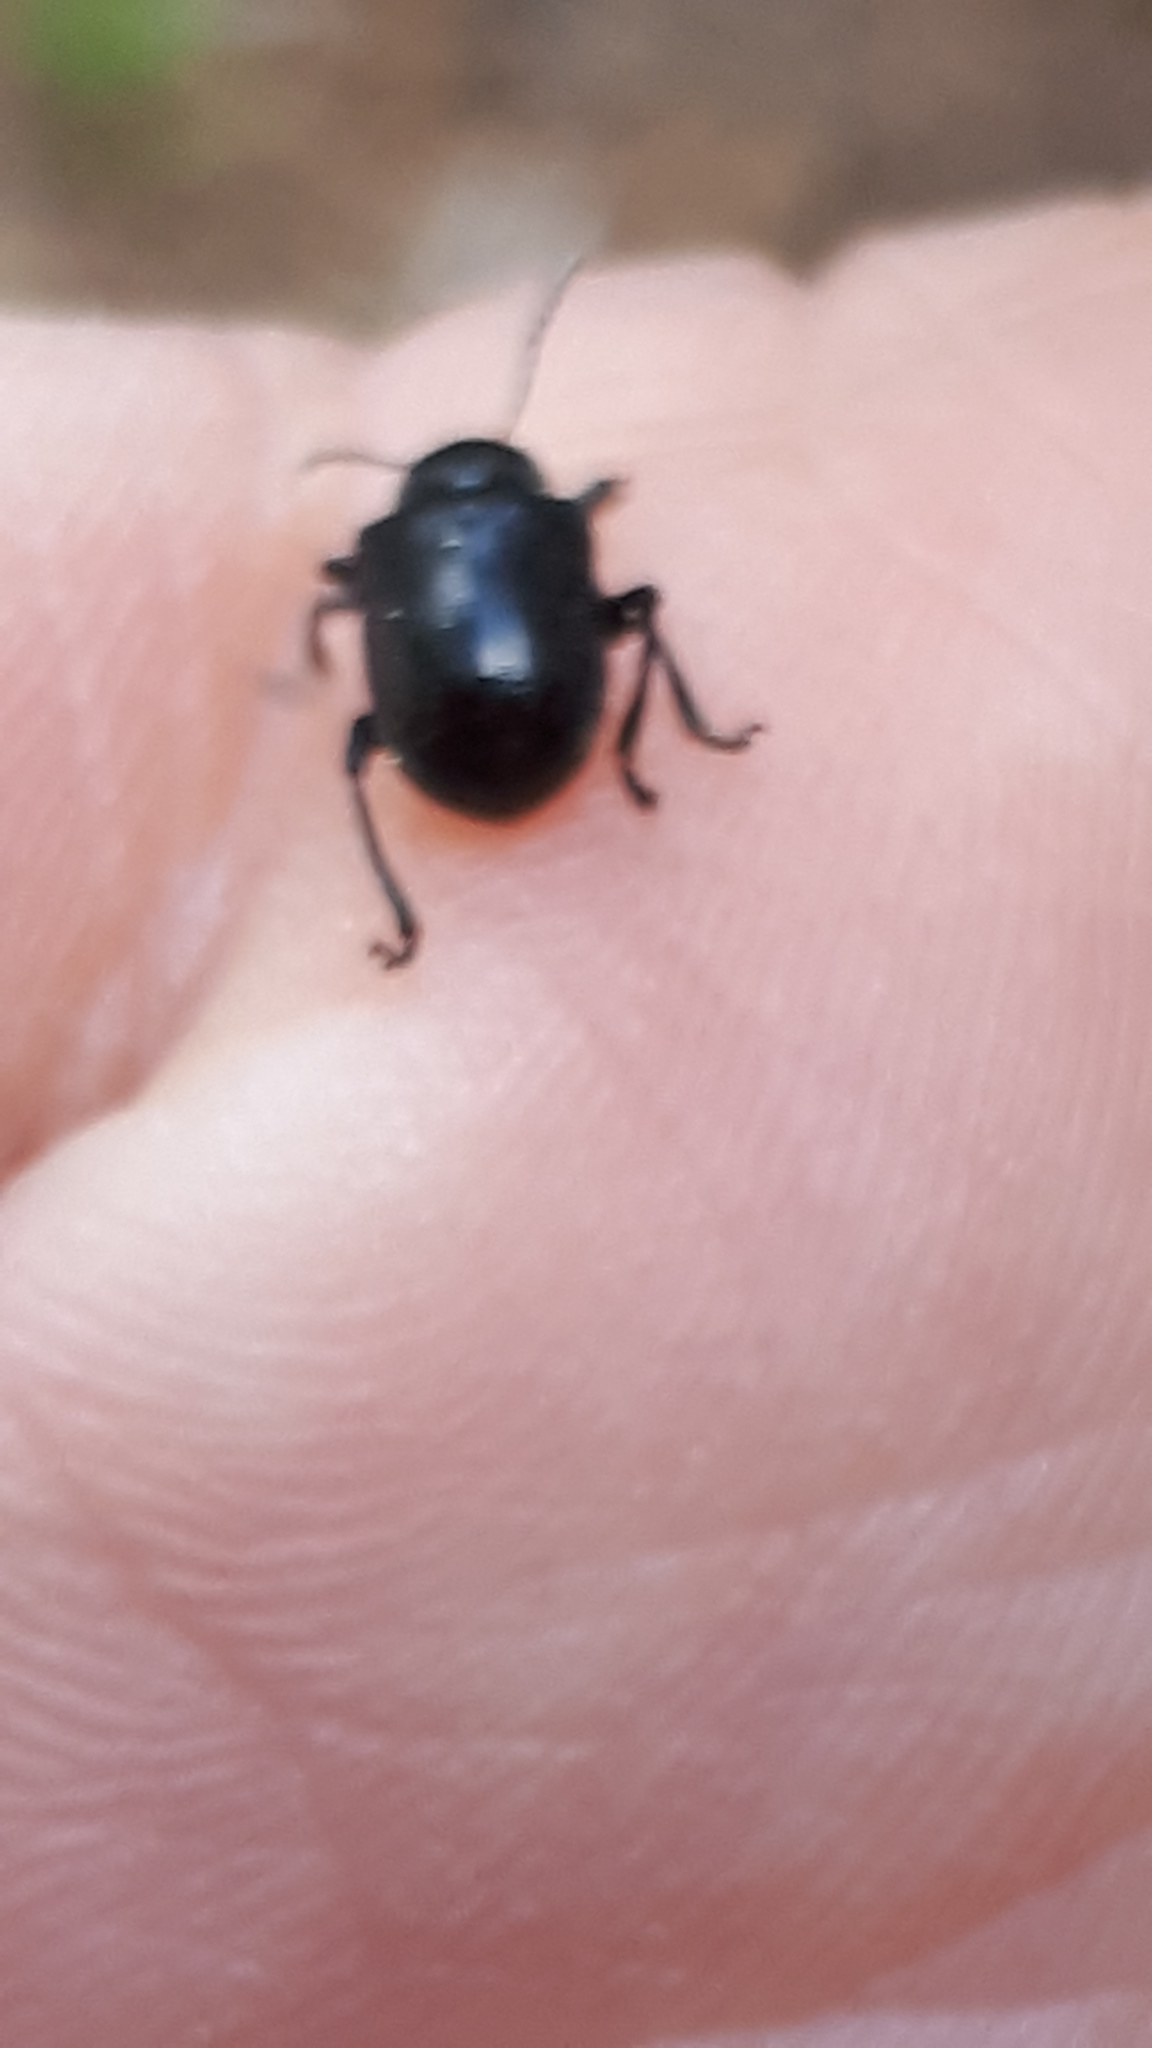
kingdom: Animalia
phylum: Arthropoda
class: Insecta
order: Coleoptera
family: Chrysomelidae
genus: Bromius
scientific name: Bromius obscurus
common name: Western grape rootworm
